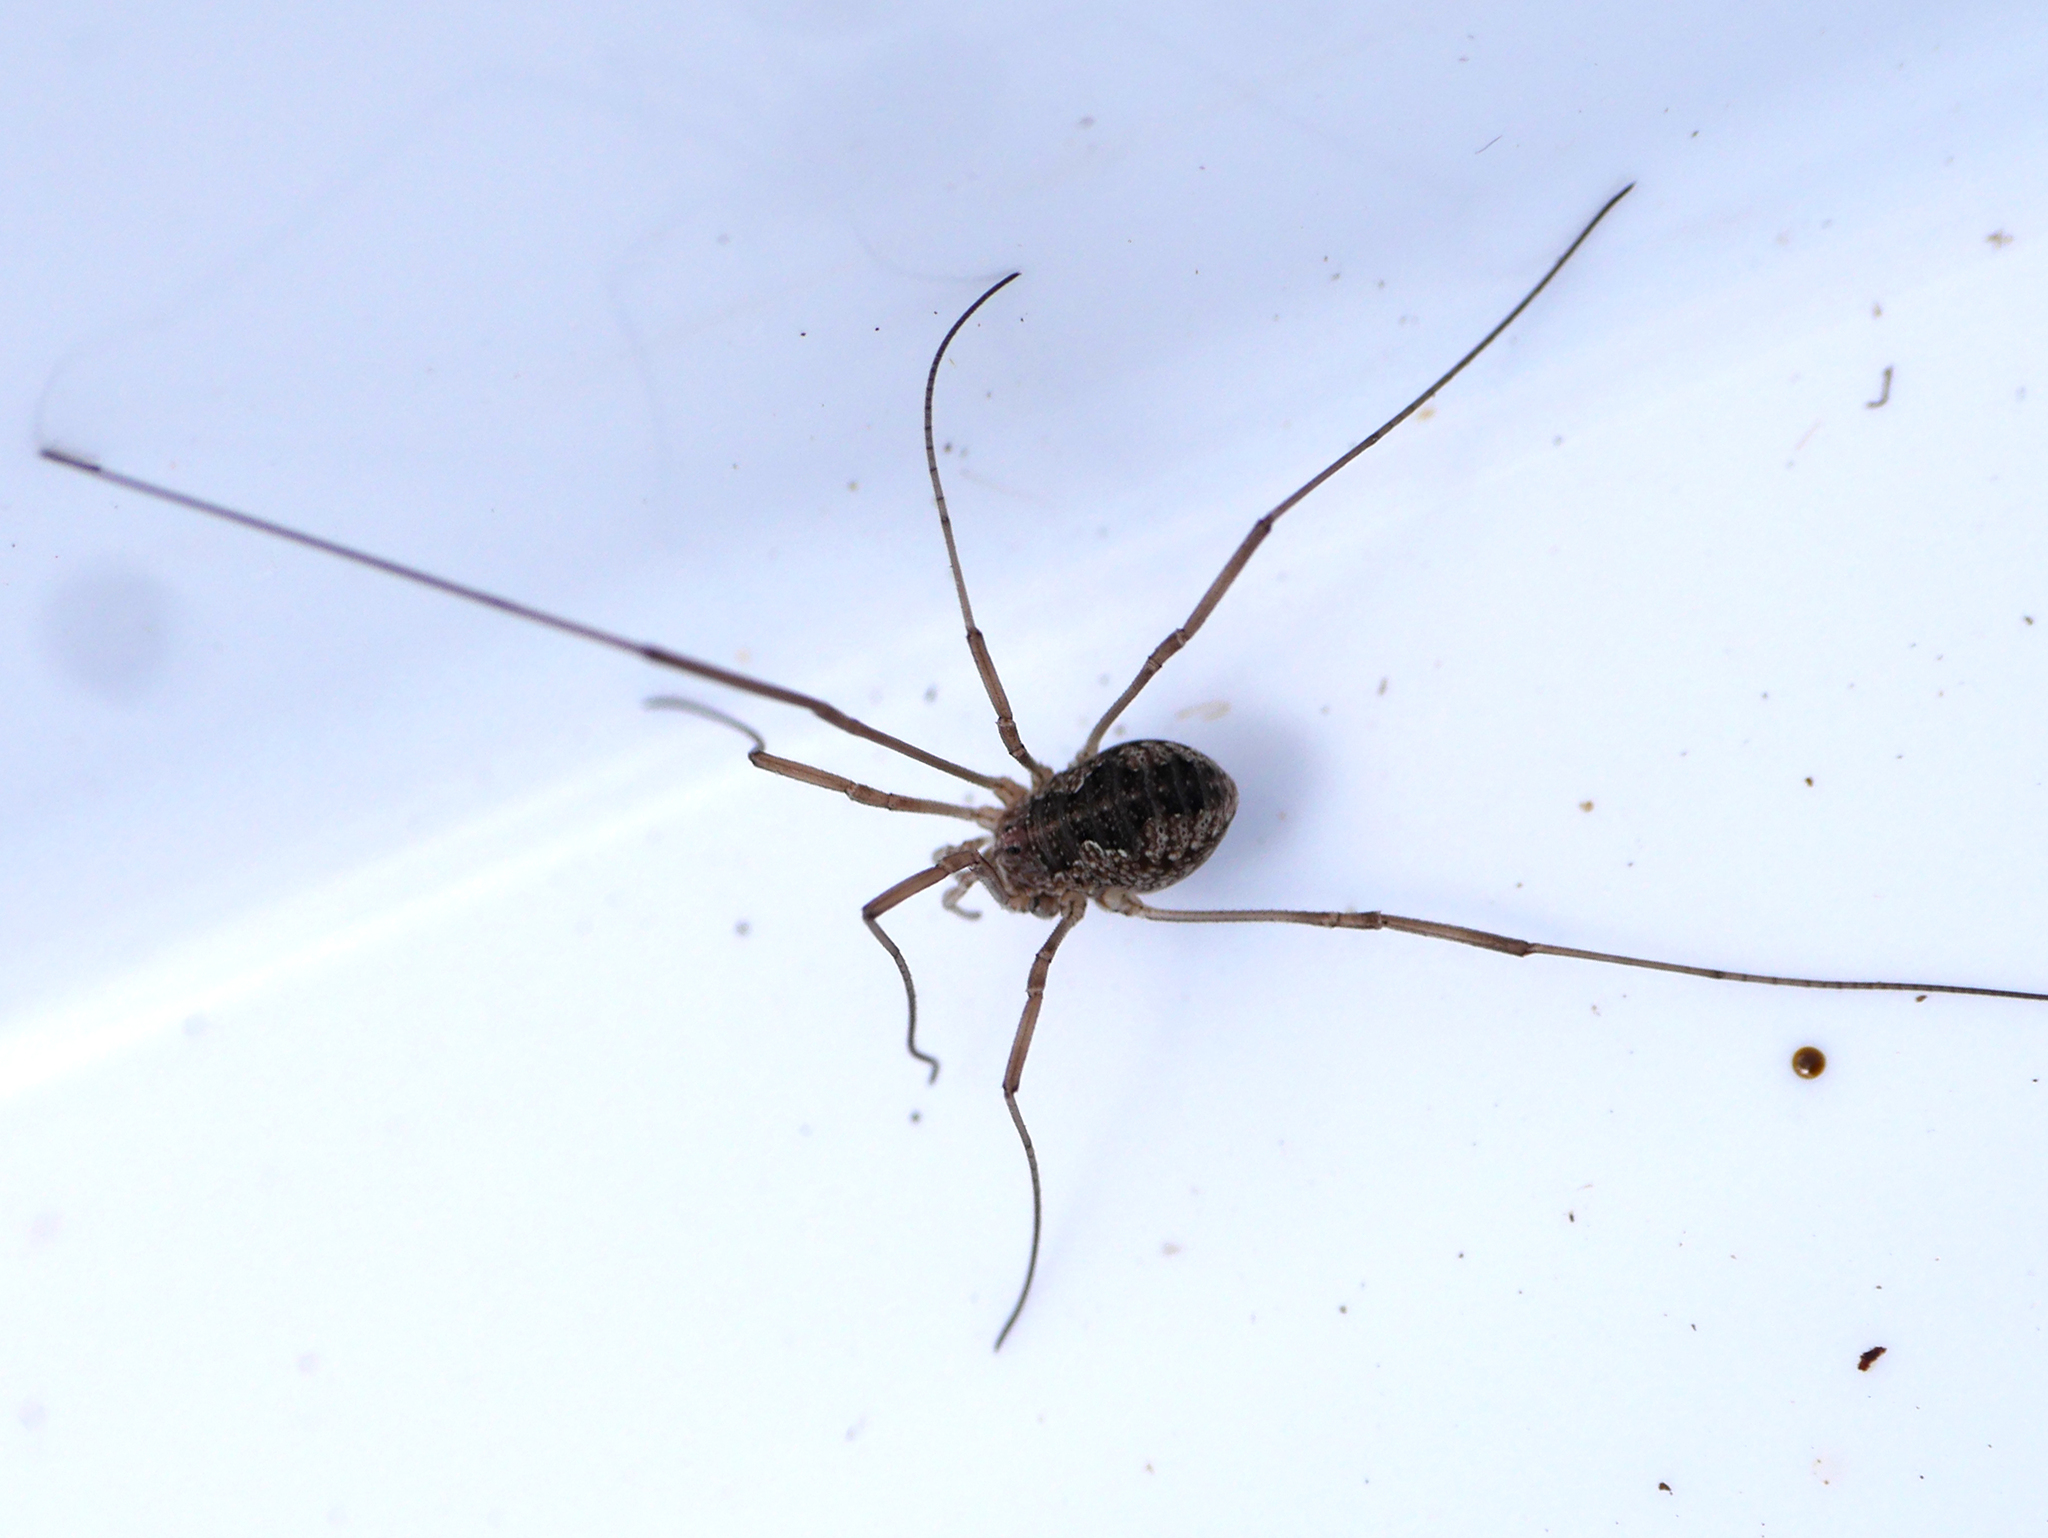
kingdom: Animalia
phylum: Arthropoda
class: Arachnida
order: Opiliones
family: Phalangiidae
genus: Phalangium
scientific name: Phalangium opilio
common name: Daddy longleg
